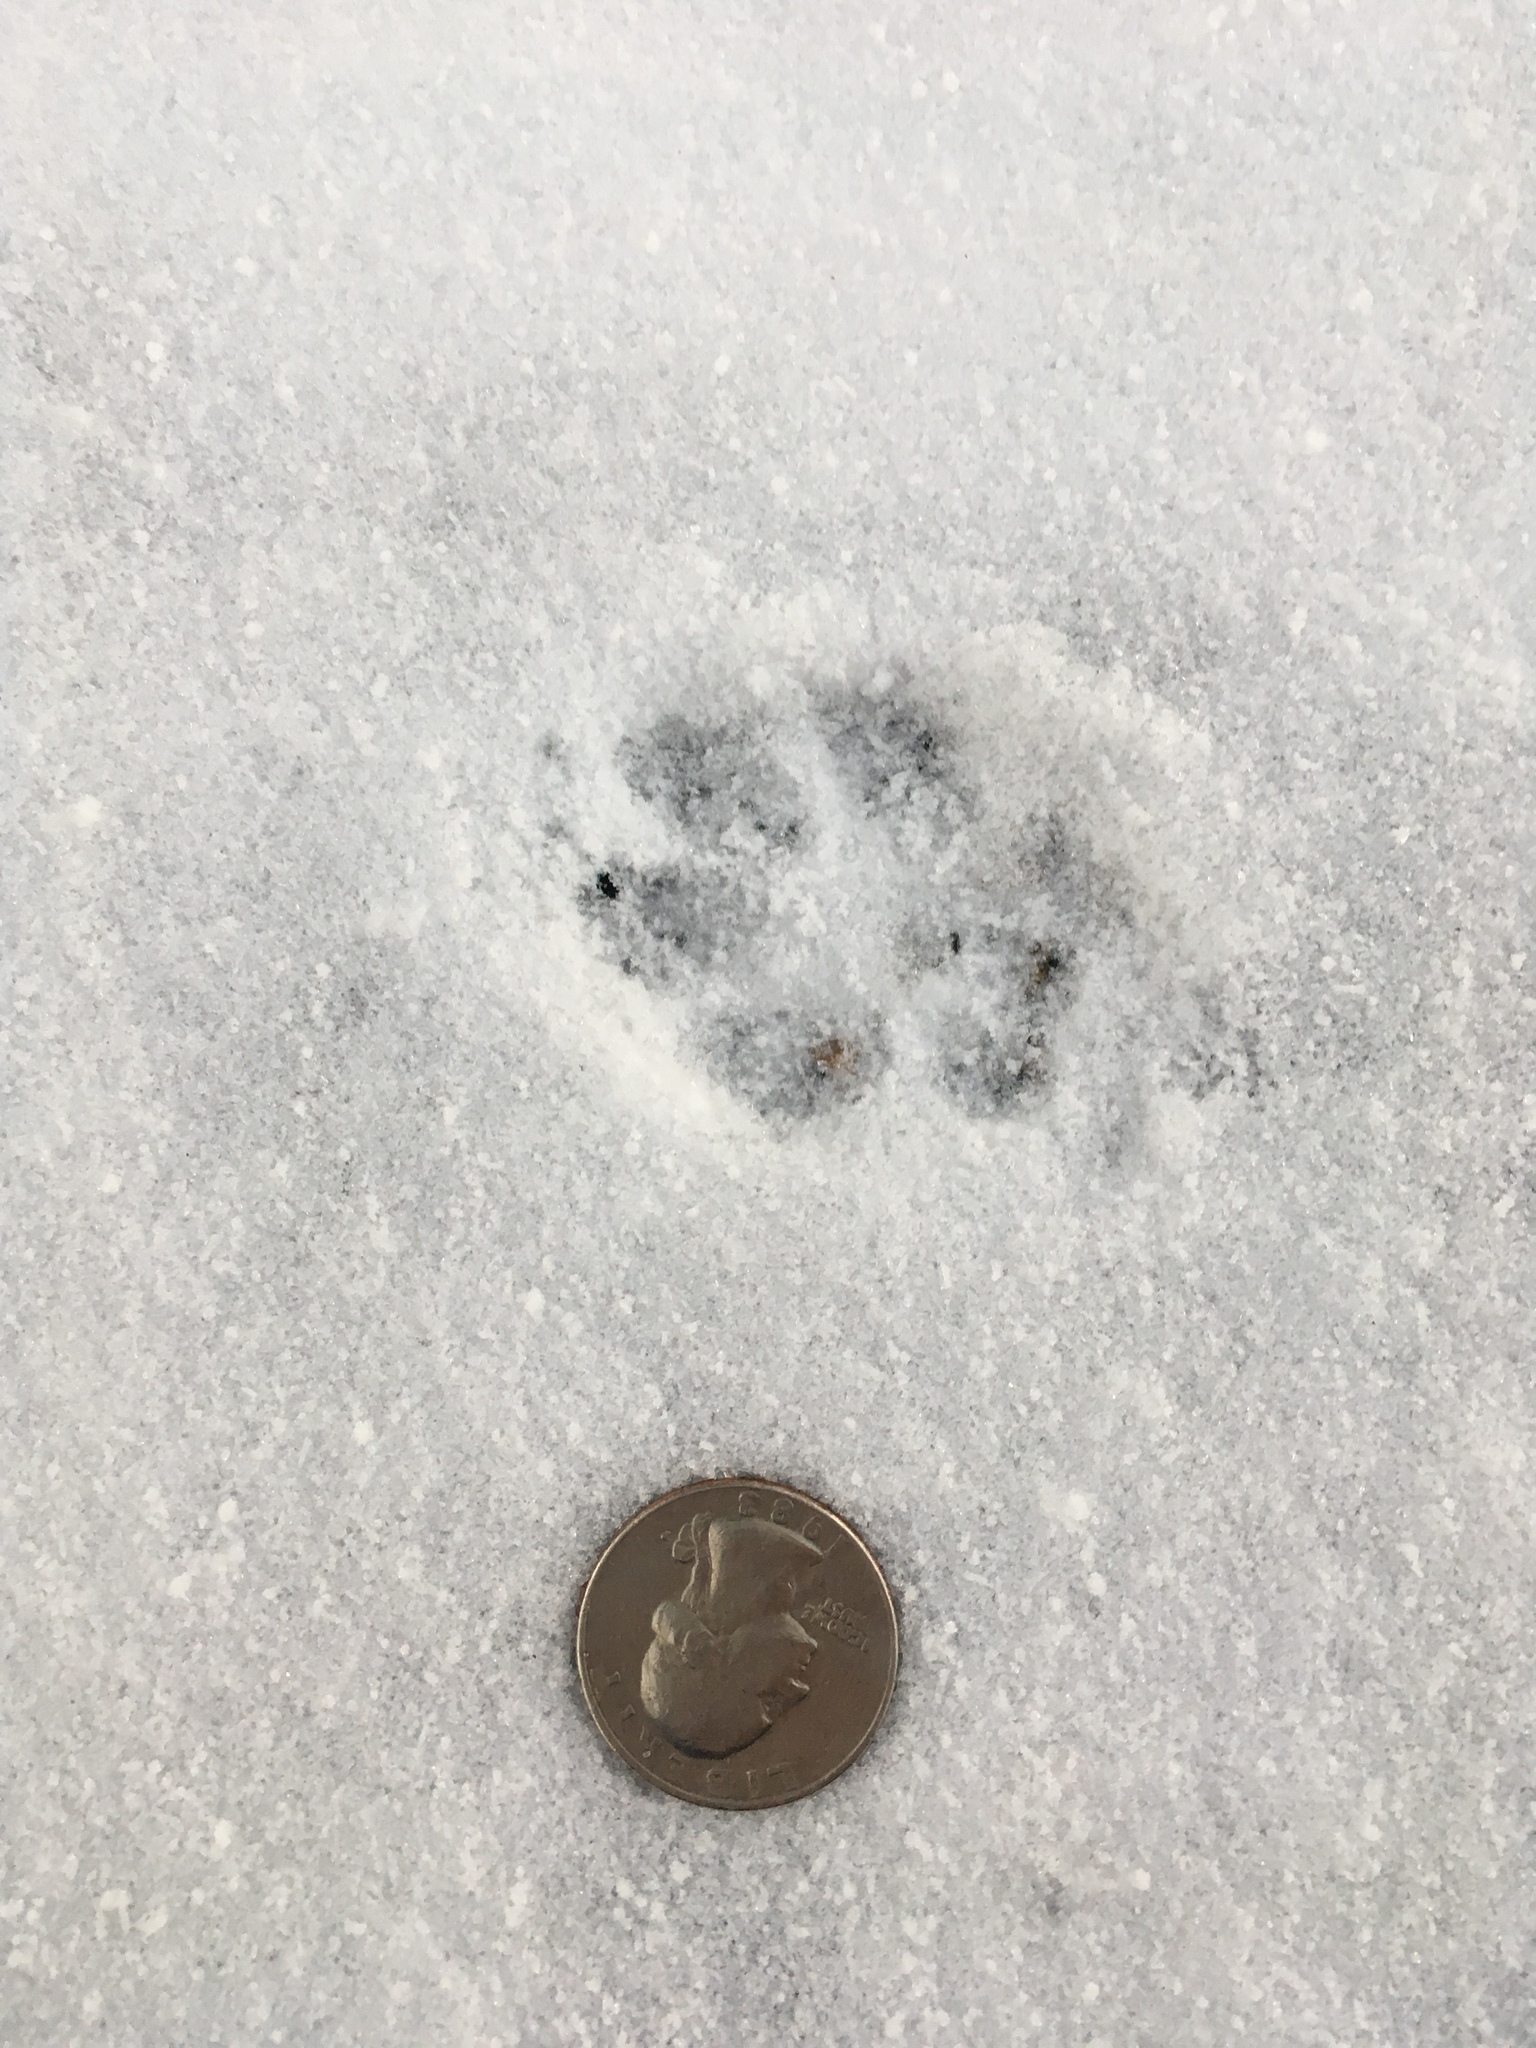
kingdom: Animalia
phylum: Chordata
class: Mammalia
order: Carnivora
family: Canidae
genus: Urocyon
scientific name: Urocyon cinereoargenteus
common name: Gray fox
